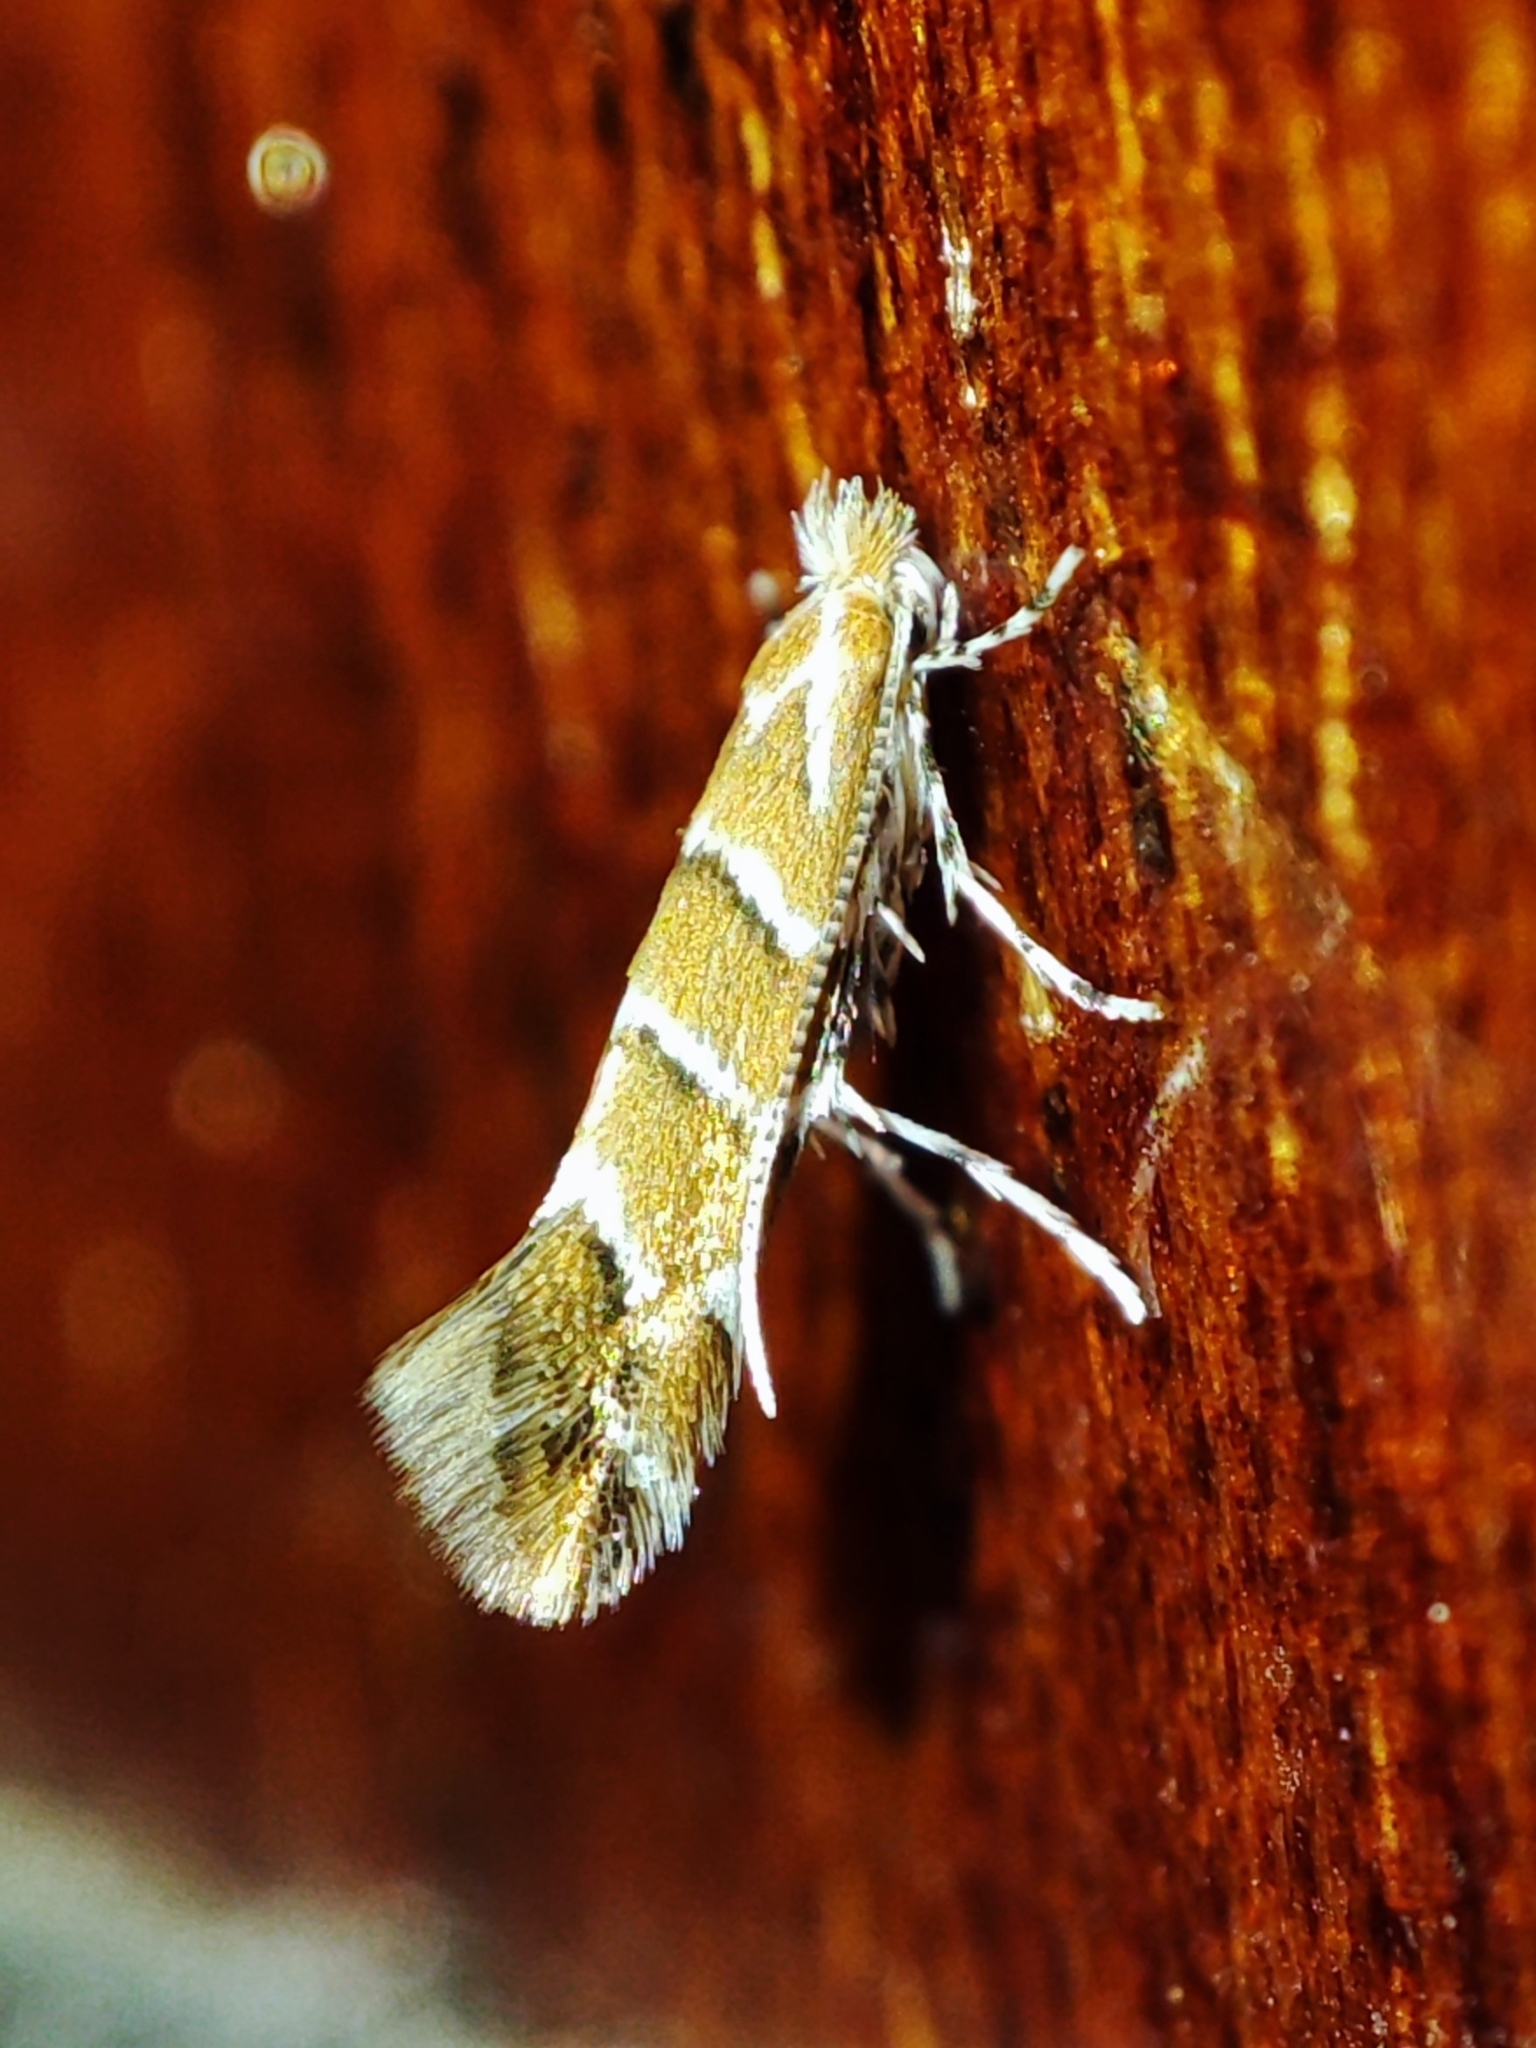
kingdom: Animalia
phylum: Arthropoda
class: Insecta
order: Lepidoptera
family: Gracillariidae
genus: Cameraria
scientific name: Cameraria ohridella
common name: Horse-chestnut leaf-miner
